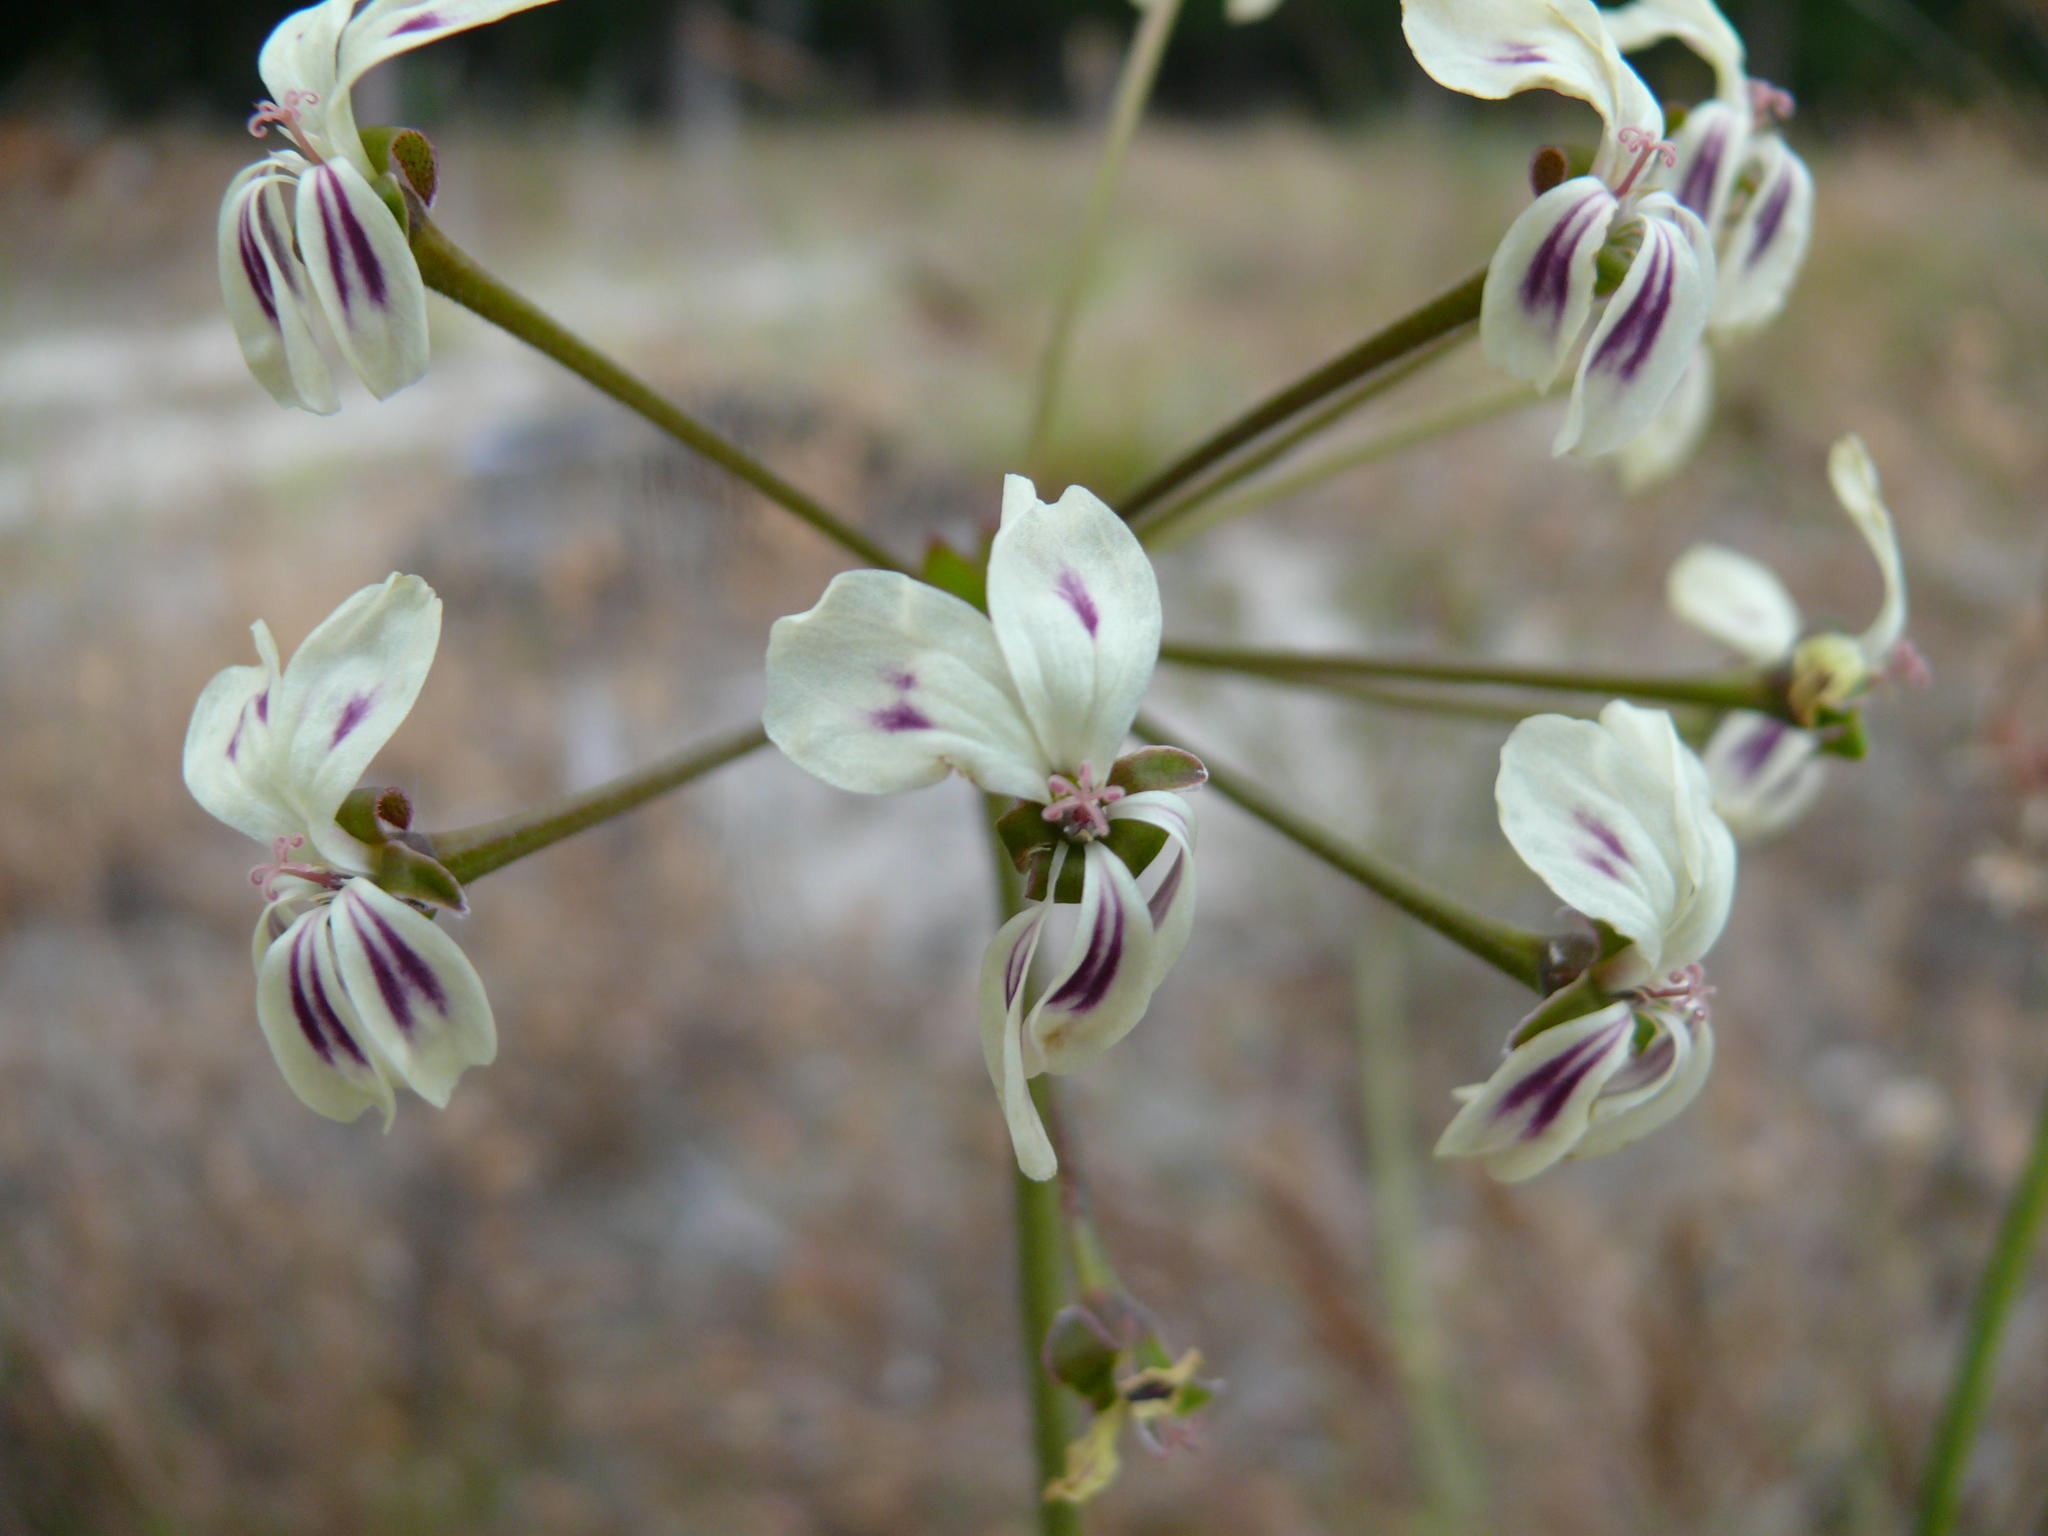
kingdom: Plantae
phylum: Tracheophyta
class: Magnoliopsida
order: Geraniales
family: Geraniaceae
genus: Pelargonium
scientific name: Pelargonium triste
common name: Night-scent pelargonium
